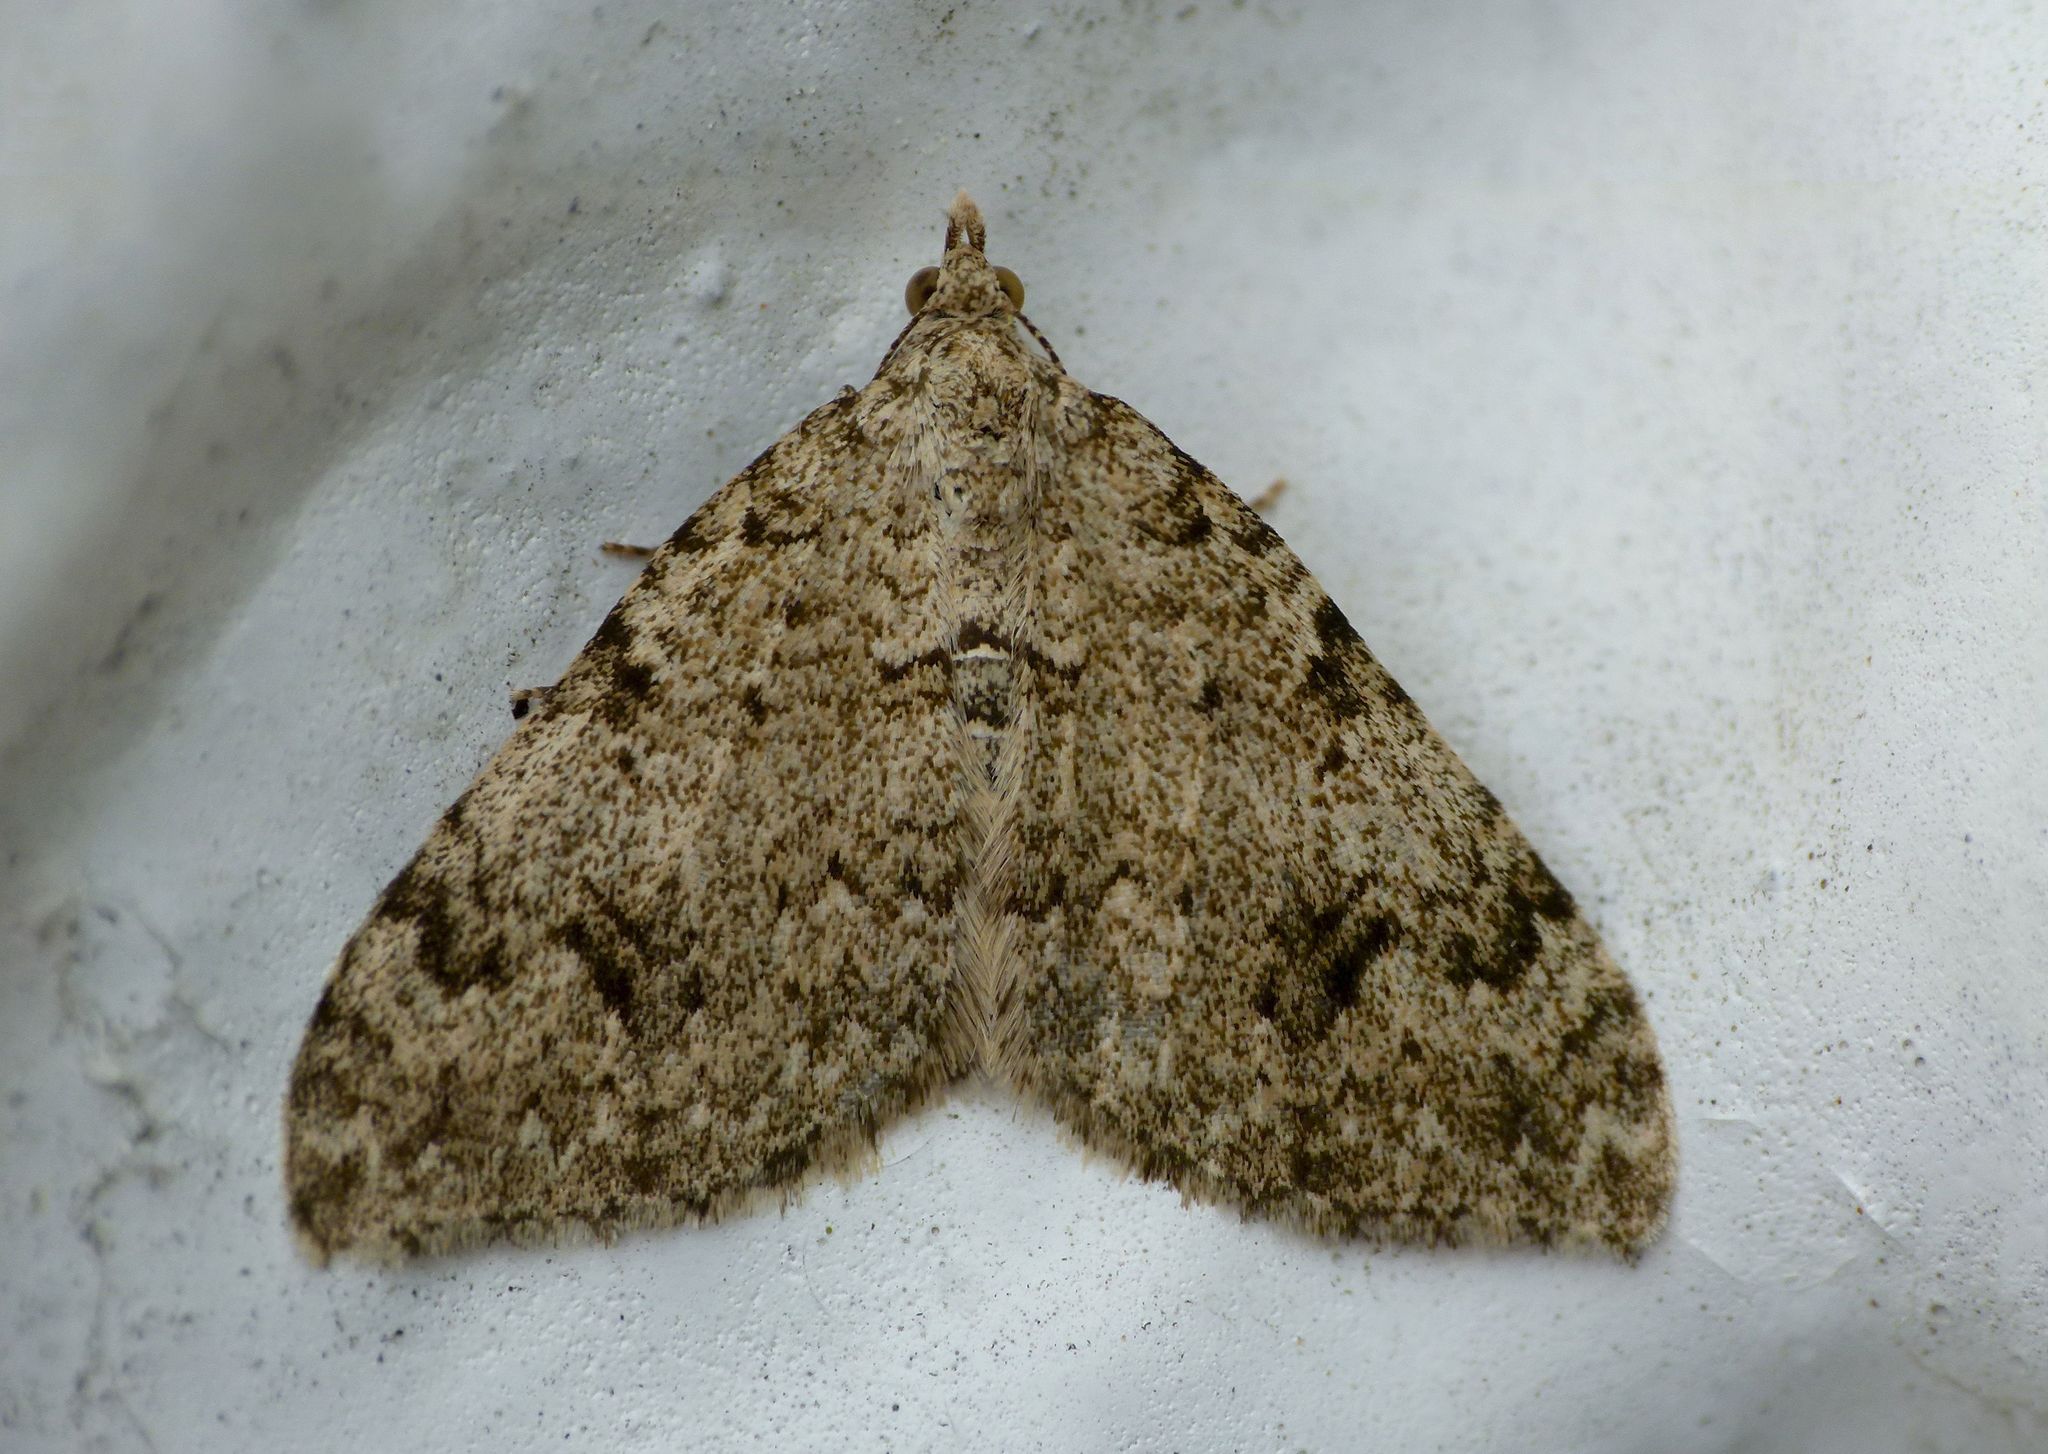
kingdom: Animalia
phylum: Arthropoda
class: Insecta
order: Lepidoptera
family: Geometridae
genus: Helastia
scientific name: Helastia cinerearia
